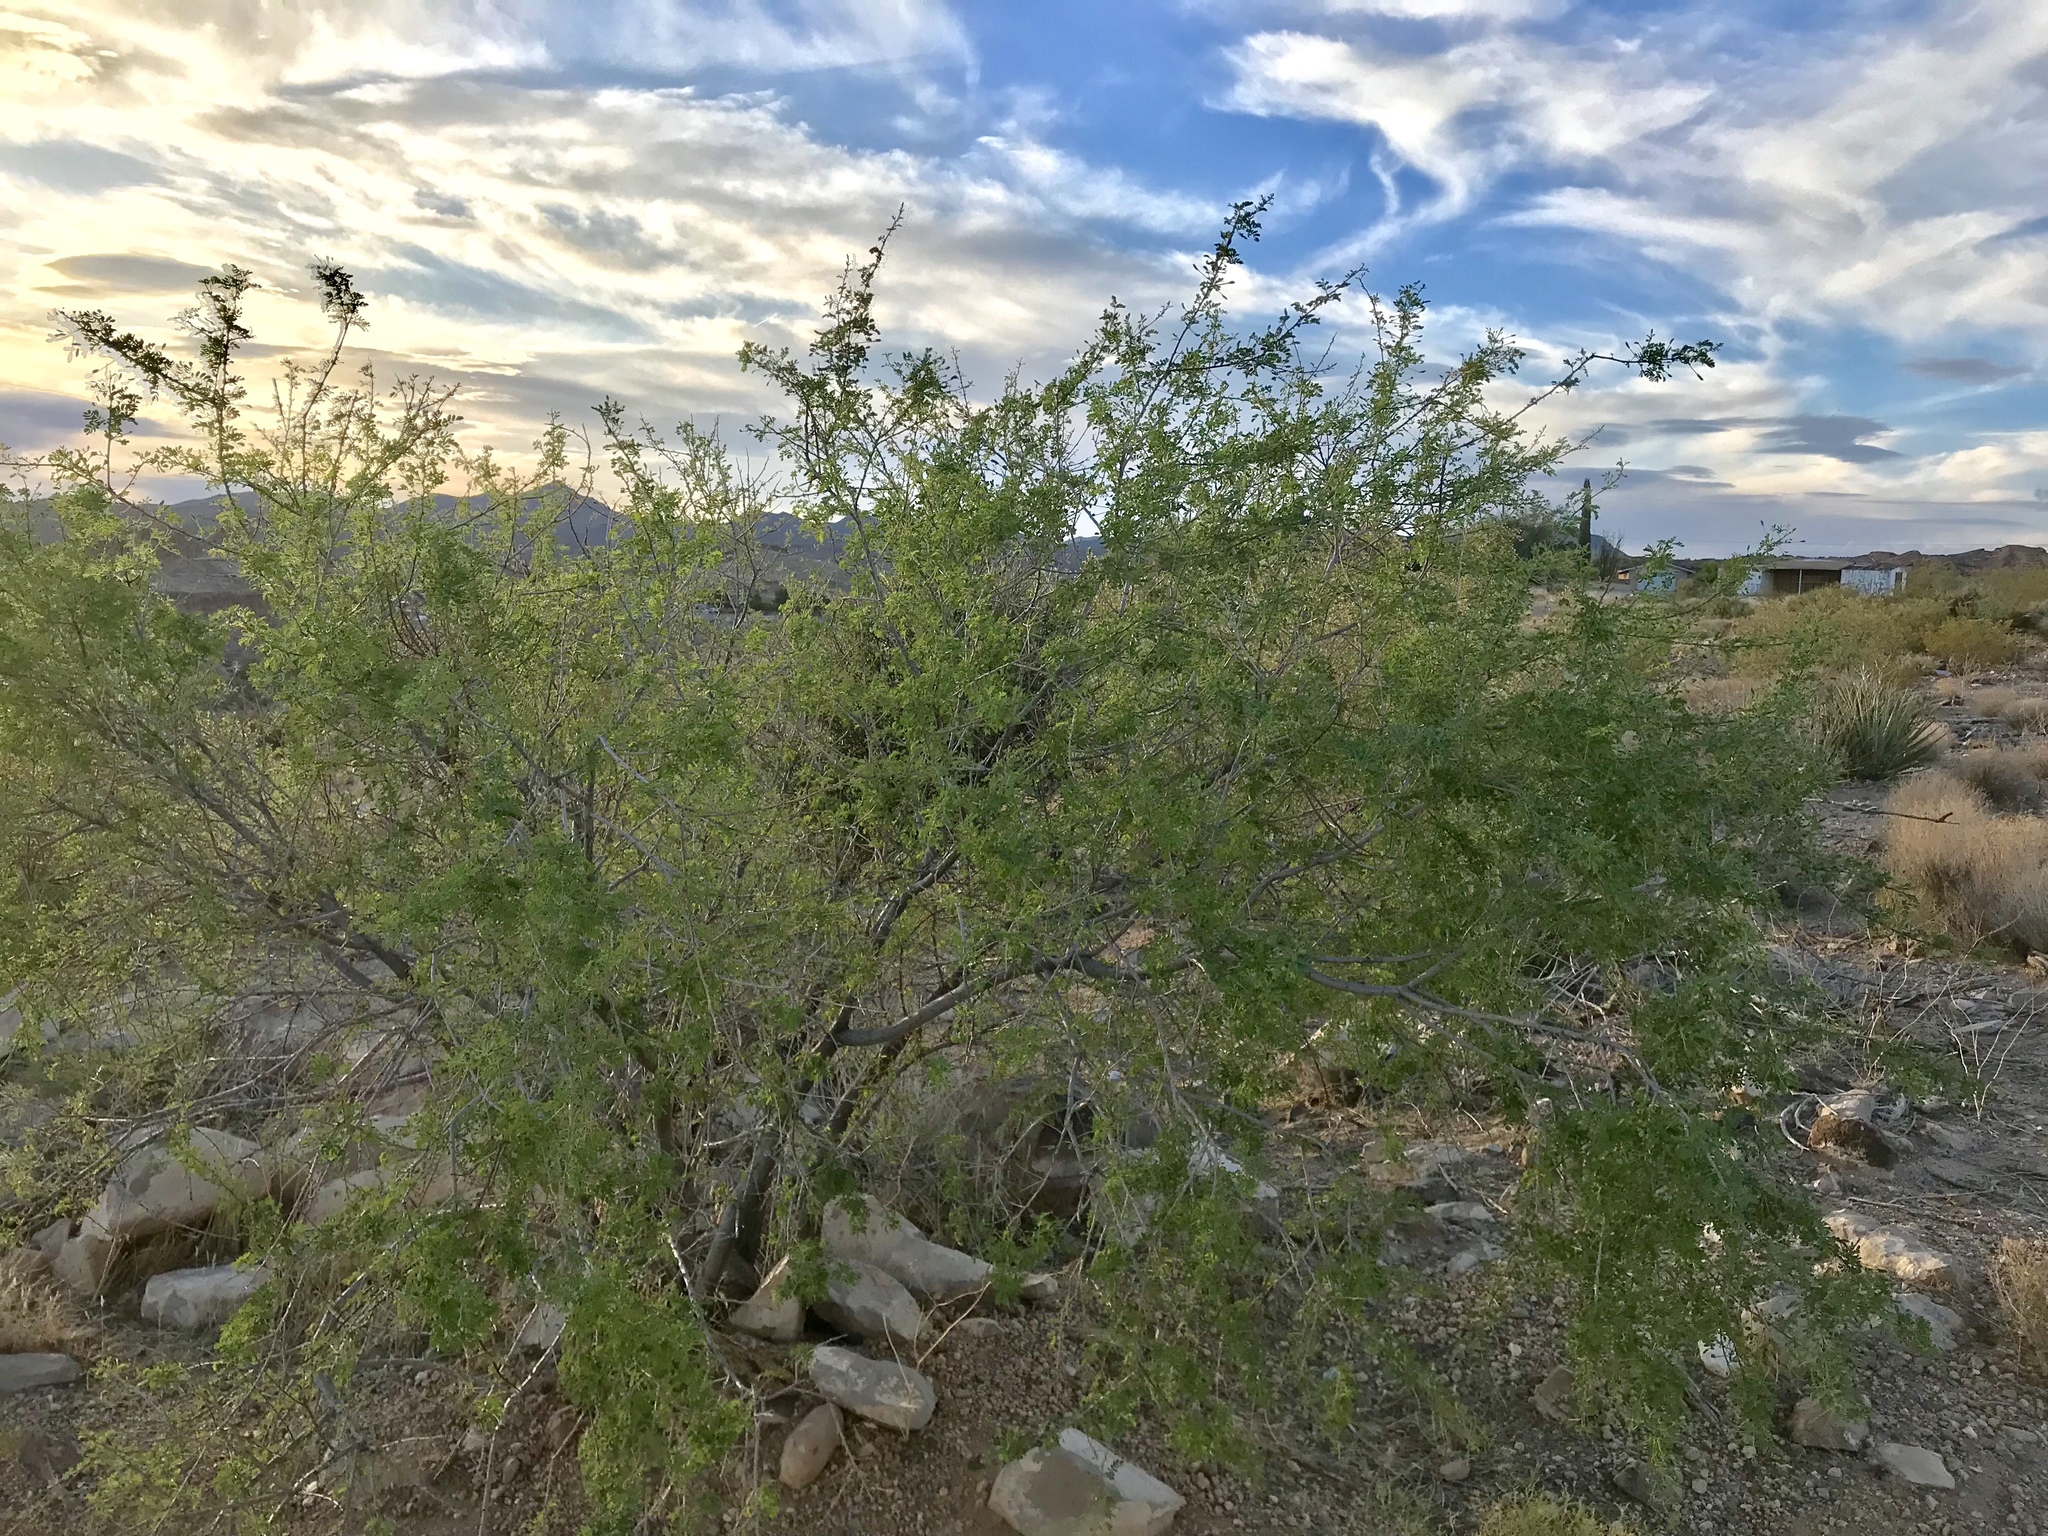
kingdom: Plantae
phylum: Tracheophyta
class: Magnoliopsida
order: Fabales
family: Fabaceae
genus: Senegalia
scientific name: Senegalia greggii
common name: Texas-mimosa
